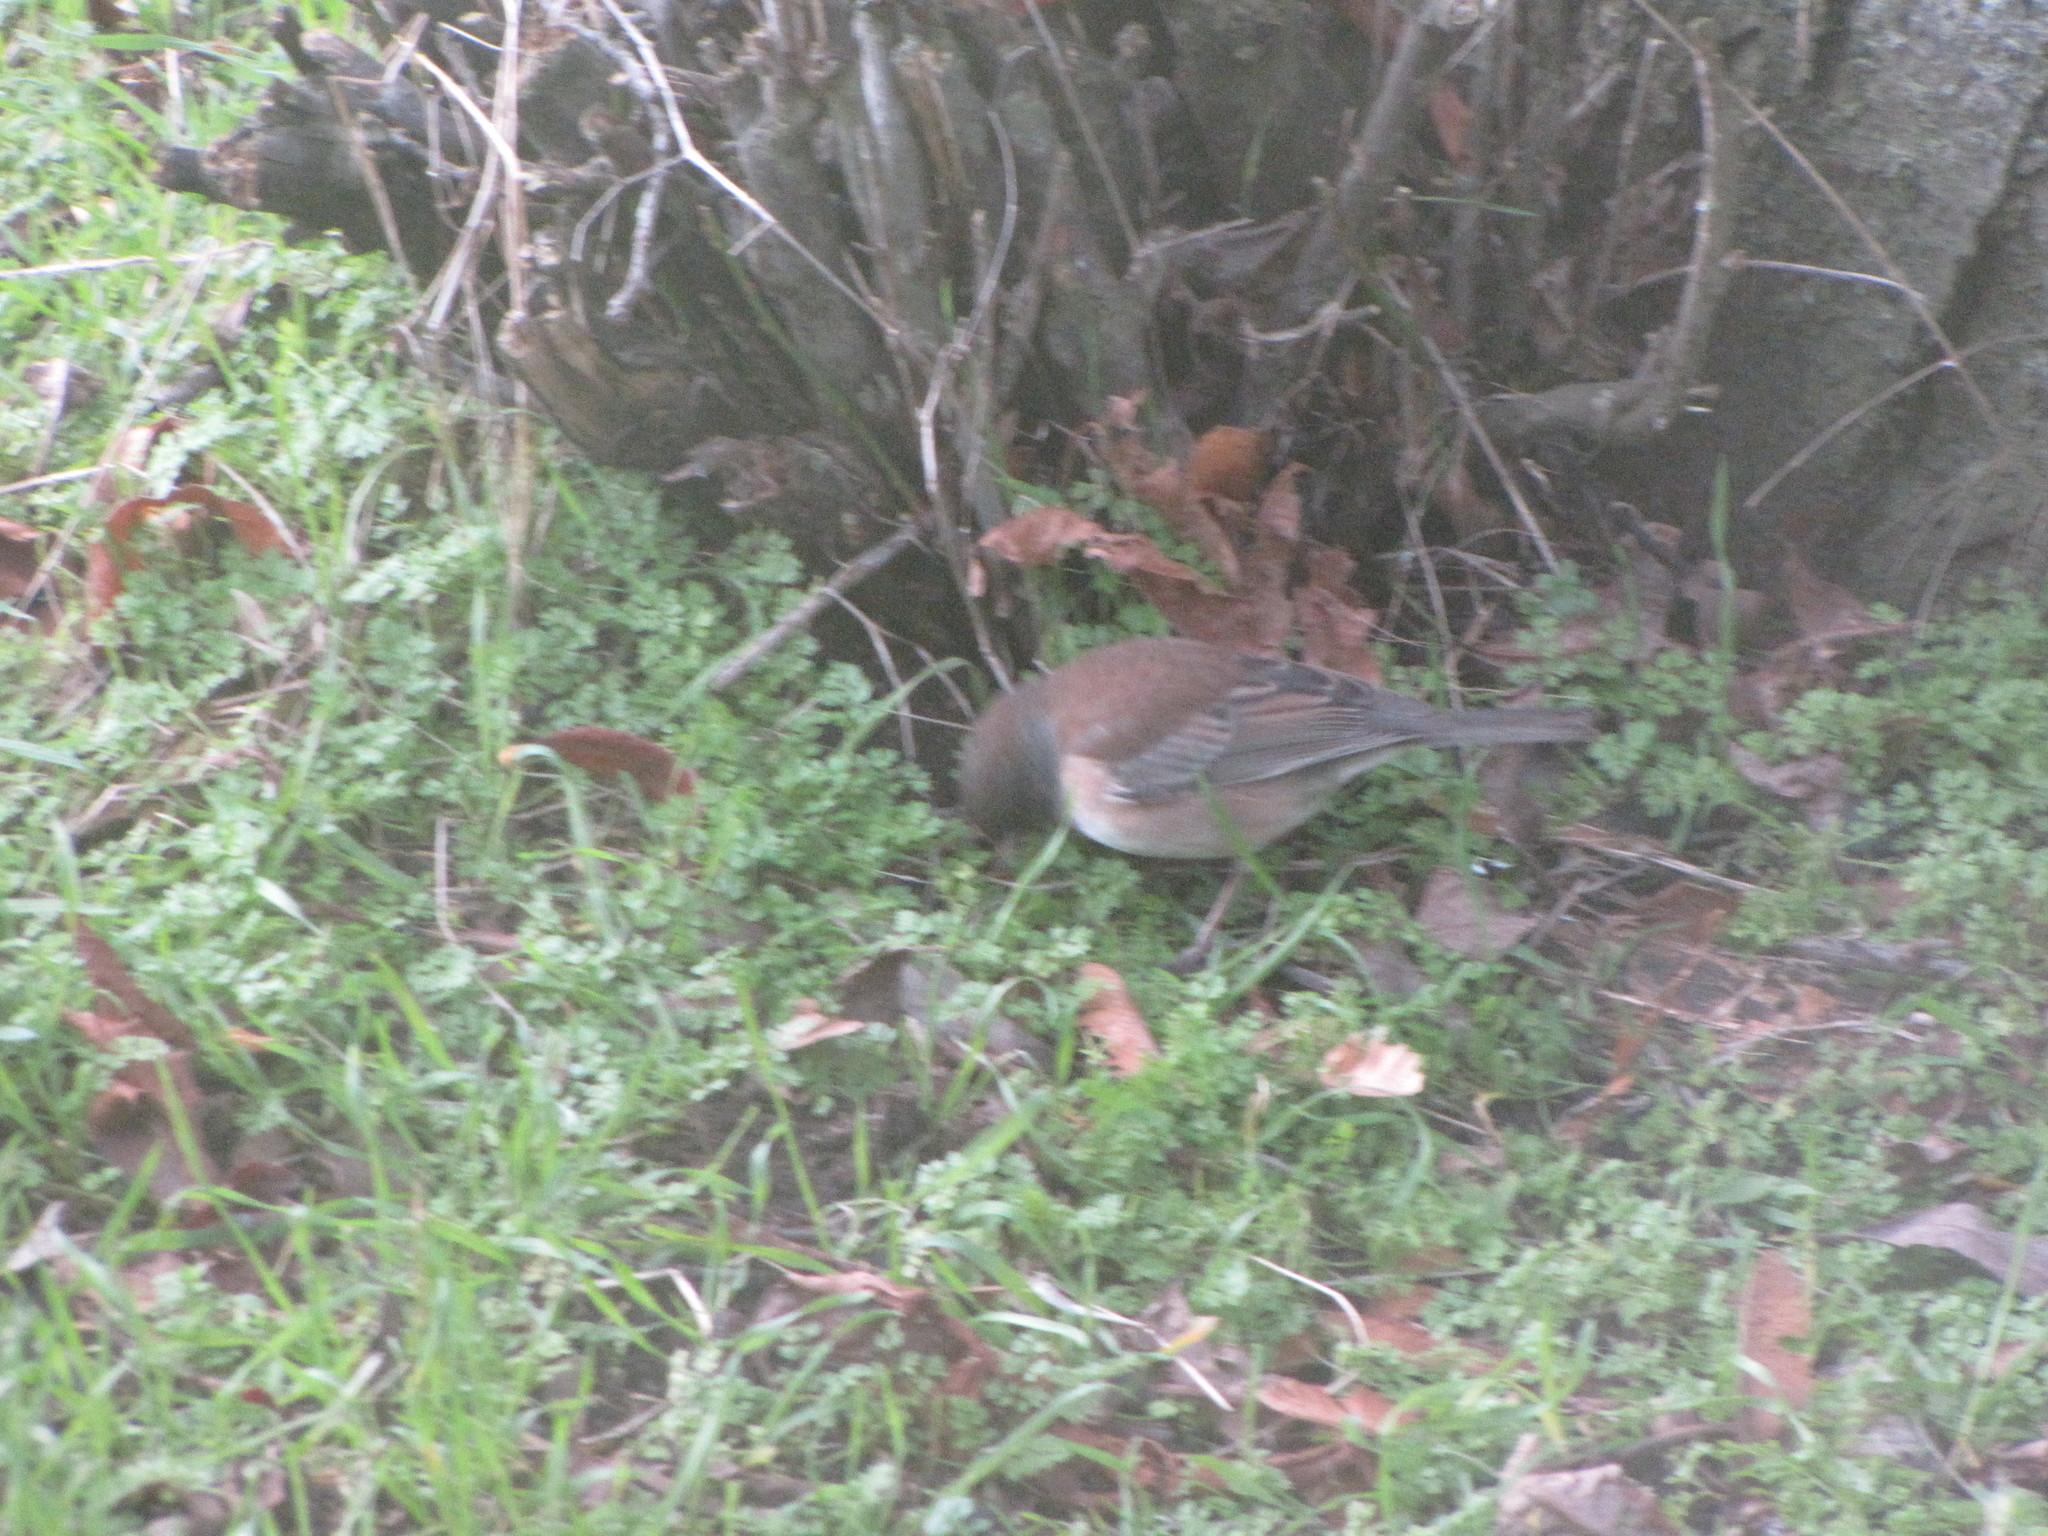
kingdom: Animalia
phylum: Chordata
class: Aves
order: Passeriformes
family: Passerellidae
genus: Junco
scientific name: Junco hyemalis
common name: Dark-eyed junco
